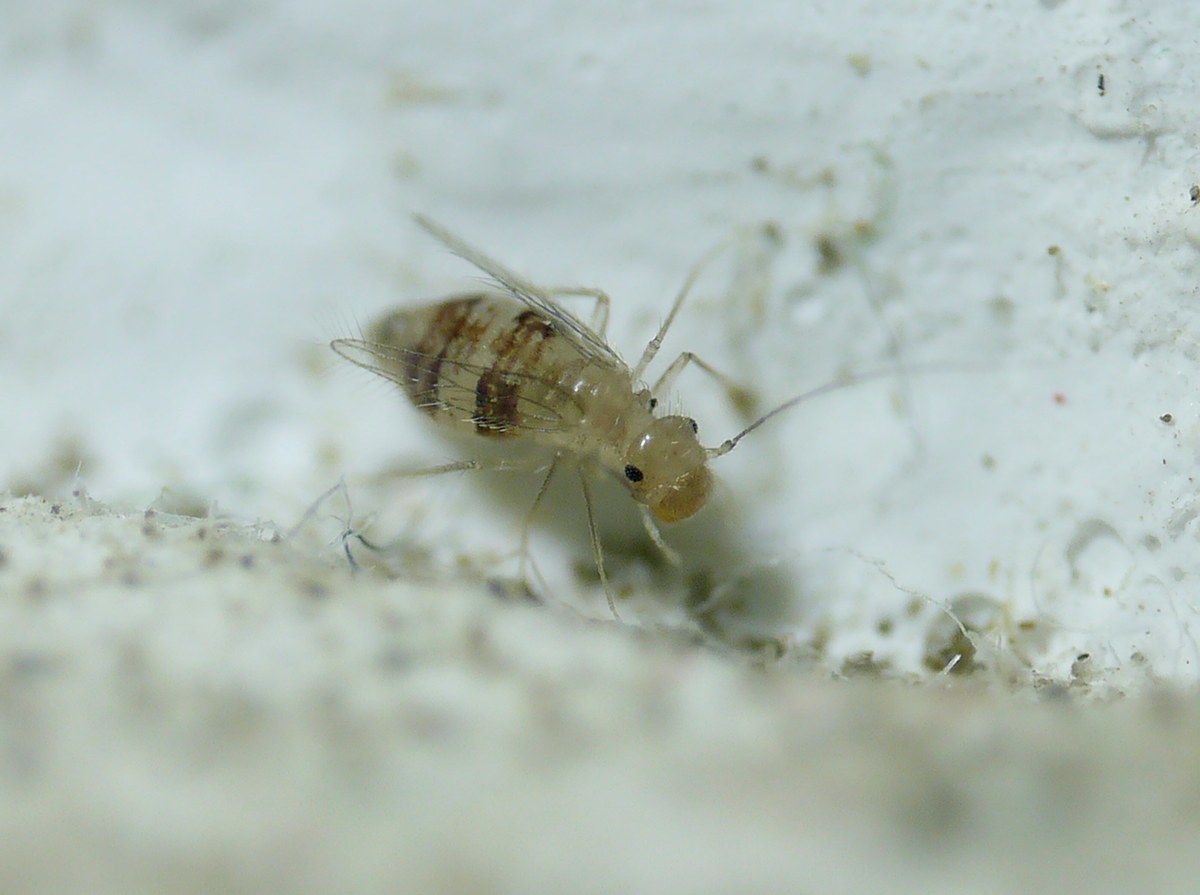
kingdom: Animalia
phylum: Arthropoda
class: Insecta
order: Psocodea
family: Psyllipsocidae
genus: Dorypteryx
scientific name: Dorypteryx domestica
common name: Cave barklouse
